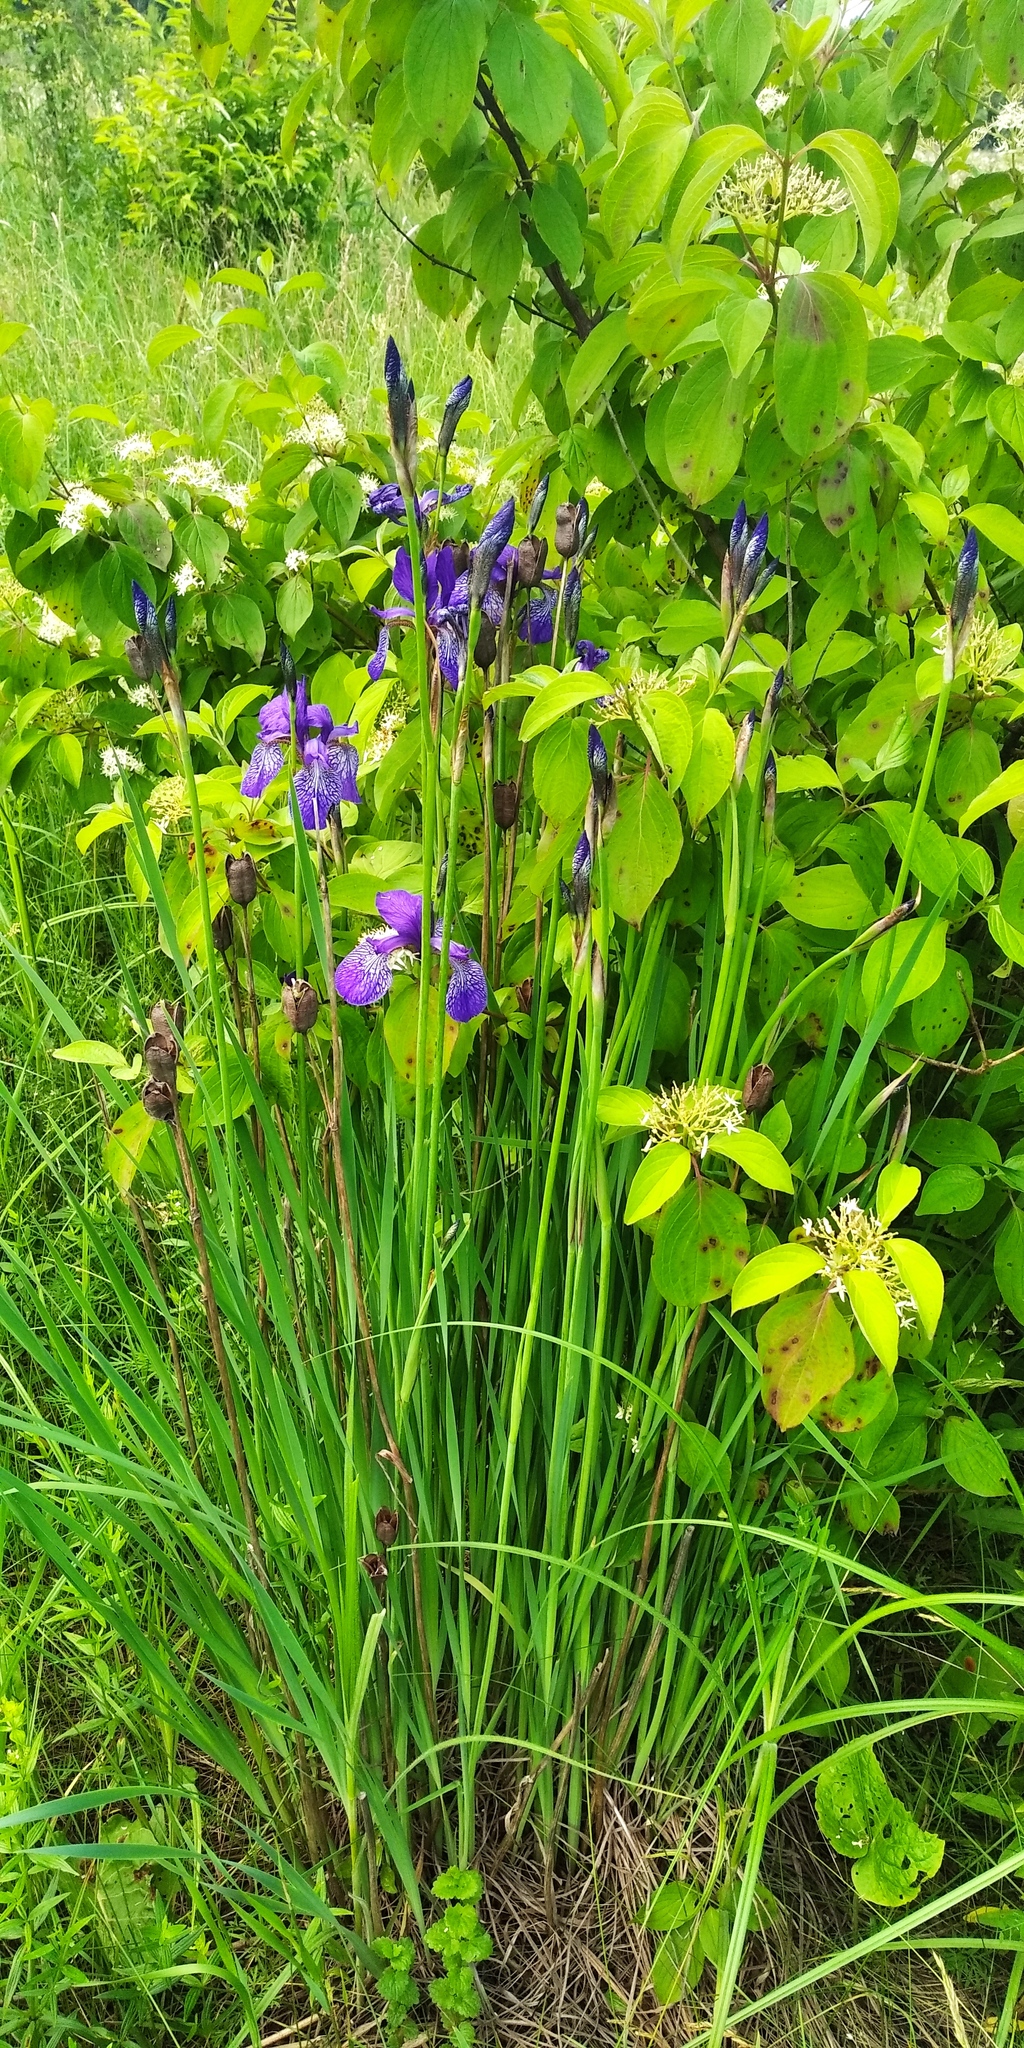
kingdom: Plantae
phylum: Tracheophyta
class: Liliopsida
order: Asparagales
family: Iridaceae
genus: Iris
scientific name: Iris sibirica
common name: Siberian iris
